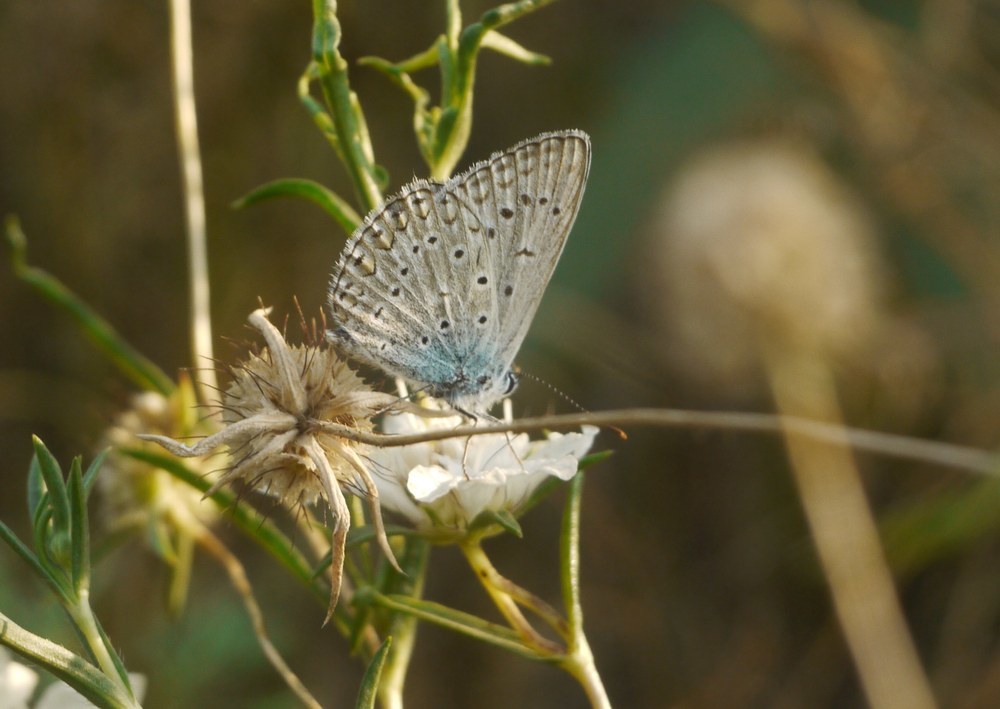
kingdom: Animalia
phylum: Arthropoda
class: Insecta
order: Lepidoptera
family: Lycaenidae
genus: Polyommatus
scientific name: Polyommatus icarus
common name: Common blue
